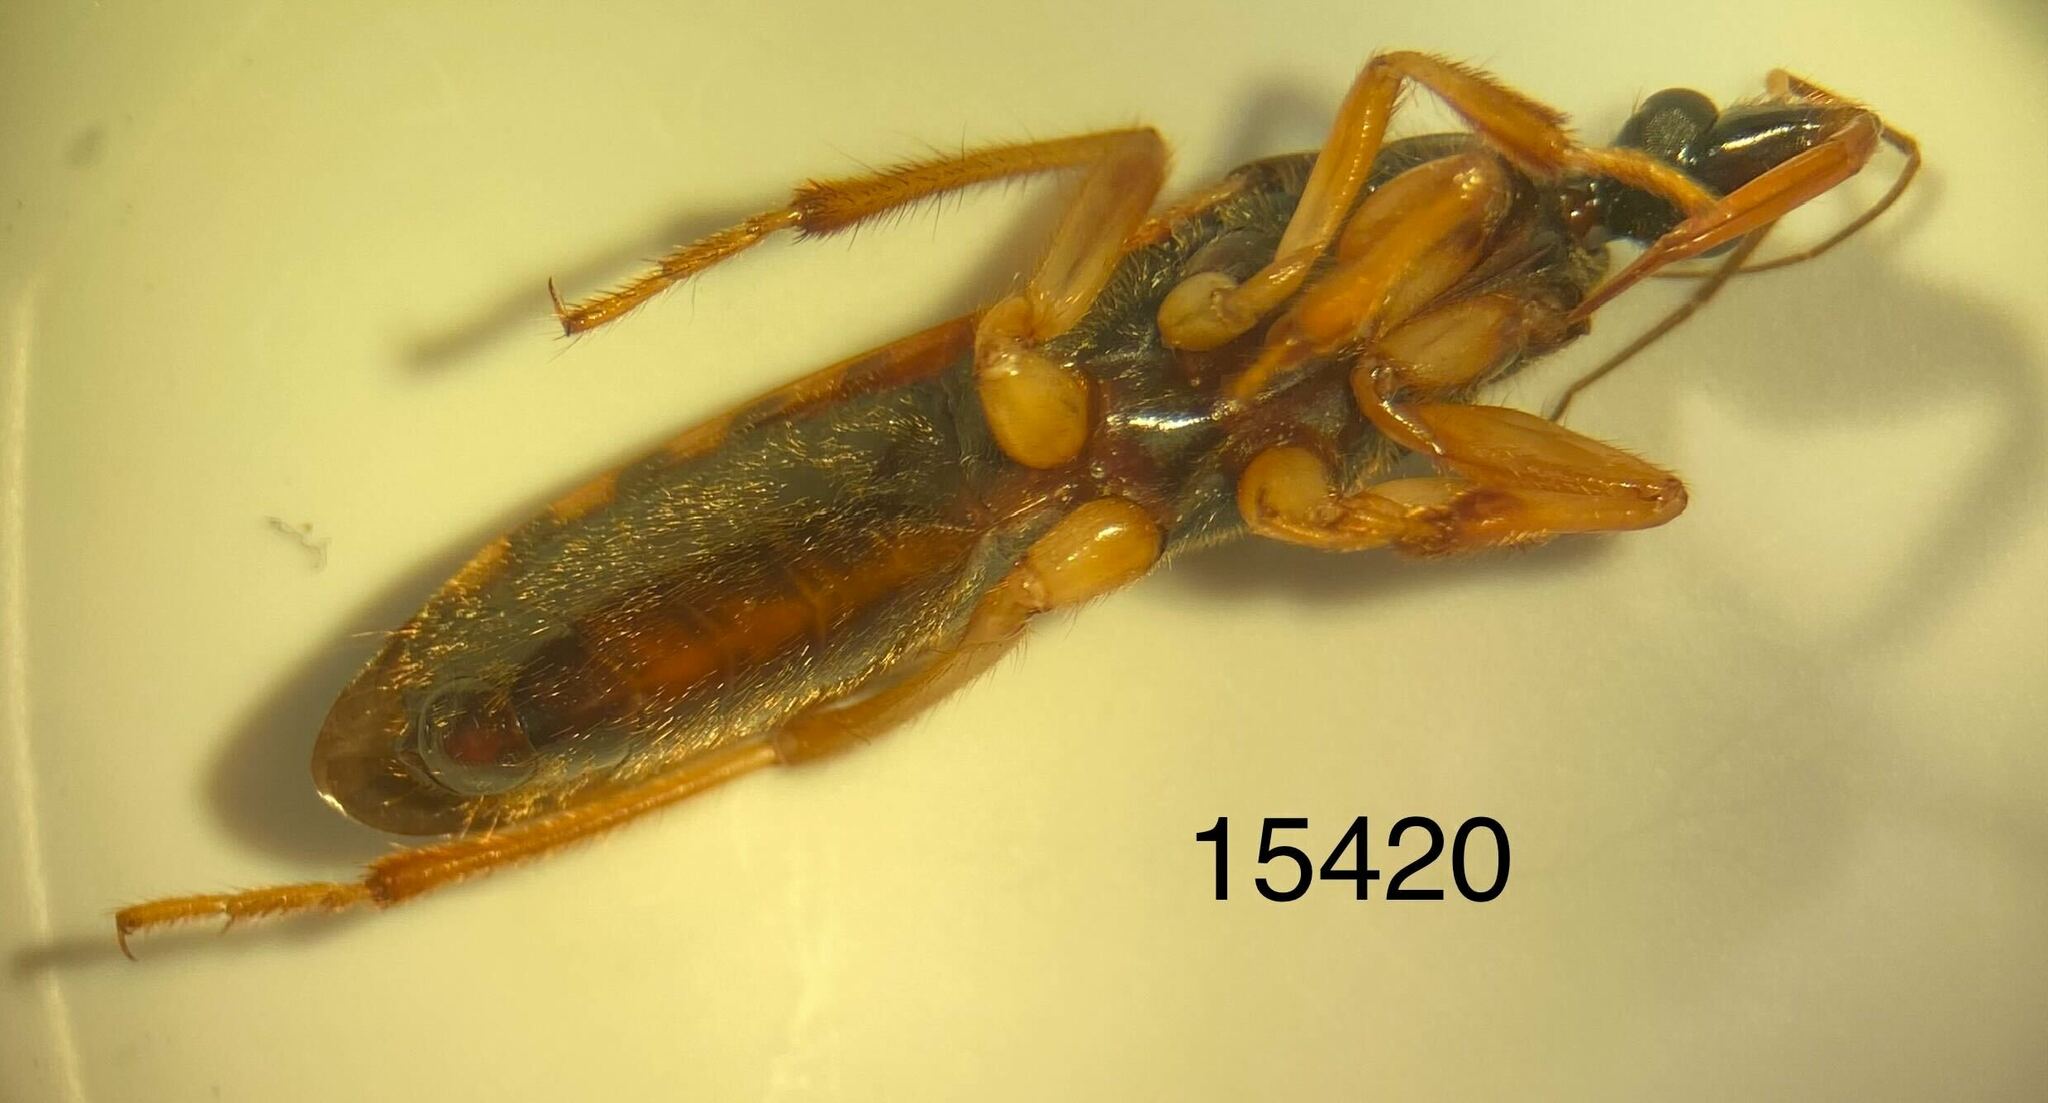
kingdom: Animalia
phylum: Arthropoda
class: Insecta
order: Hemiptera
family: Reduviidae
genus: Sirthenea
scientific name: Sirthenea stria
